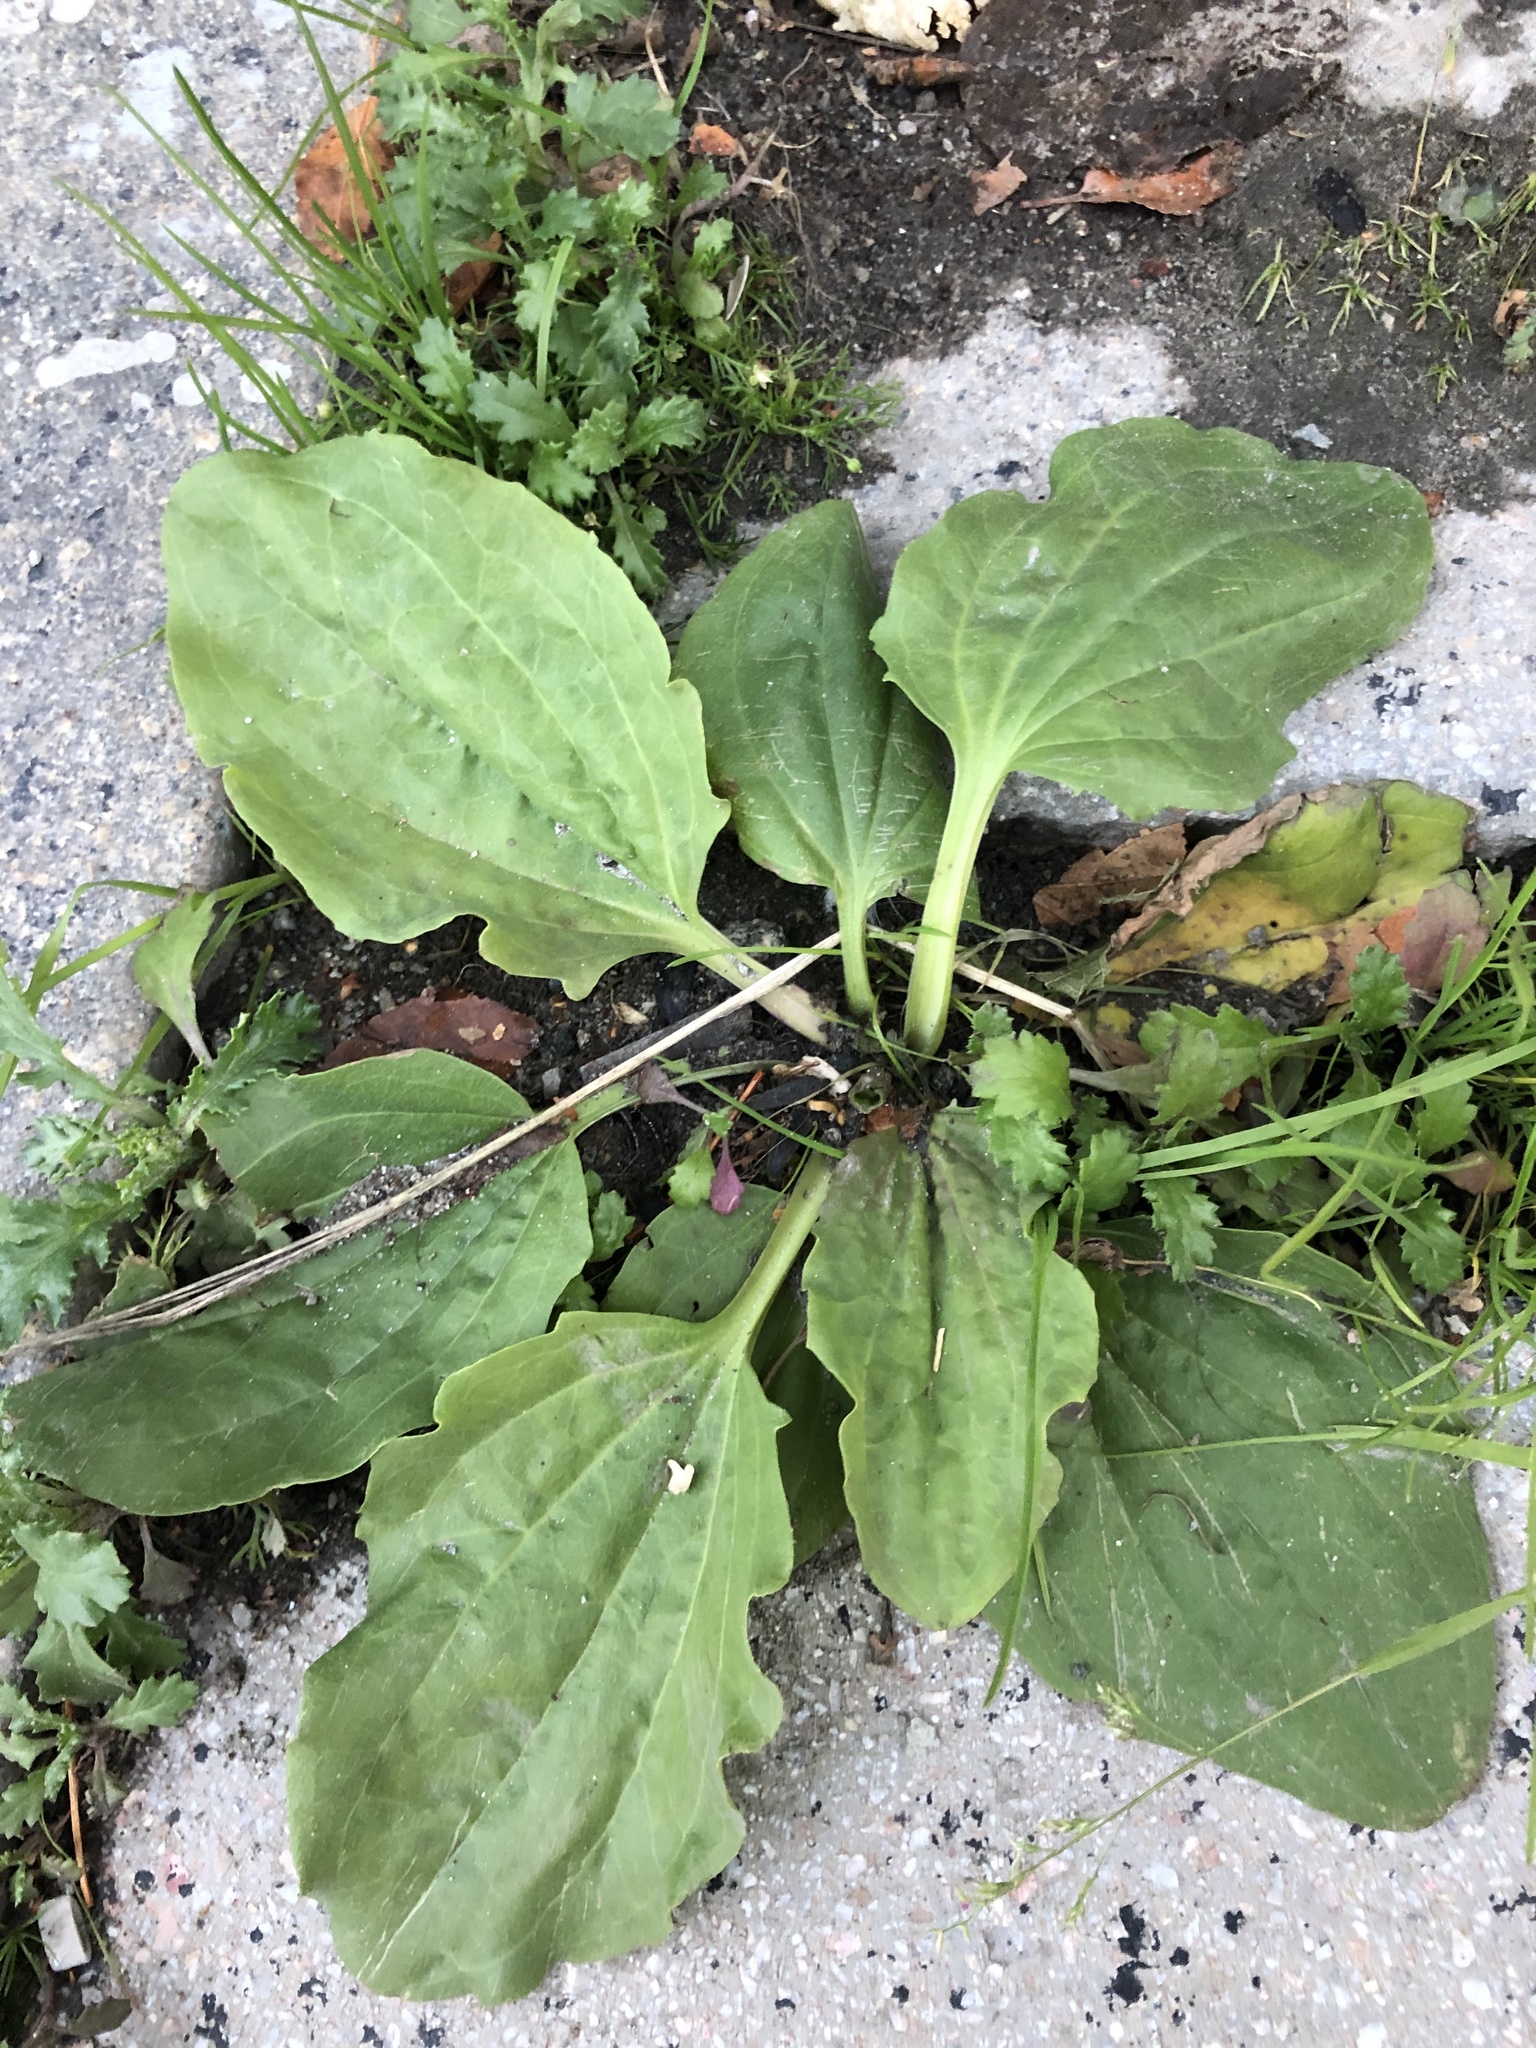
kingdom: Plantae
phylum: Tracheophyta
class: Magnoliopsida
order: Lamiales
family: Plantaginaceae
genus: Plantago
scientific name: Plantago major
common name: Common plantain
